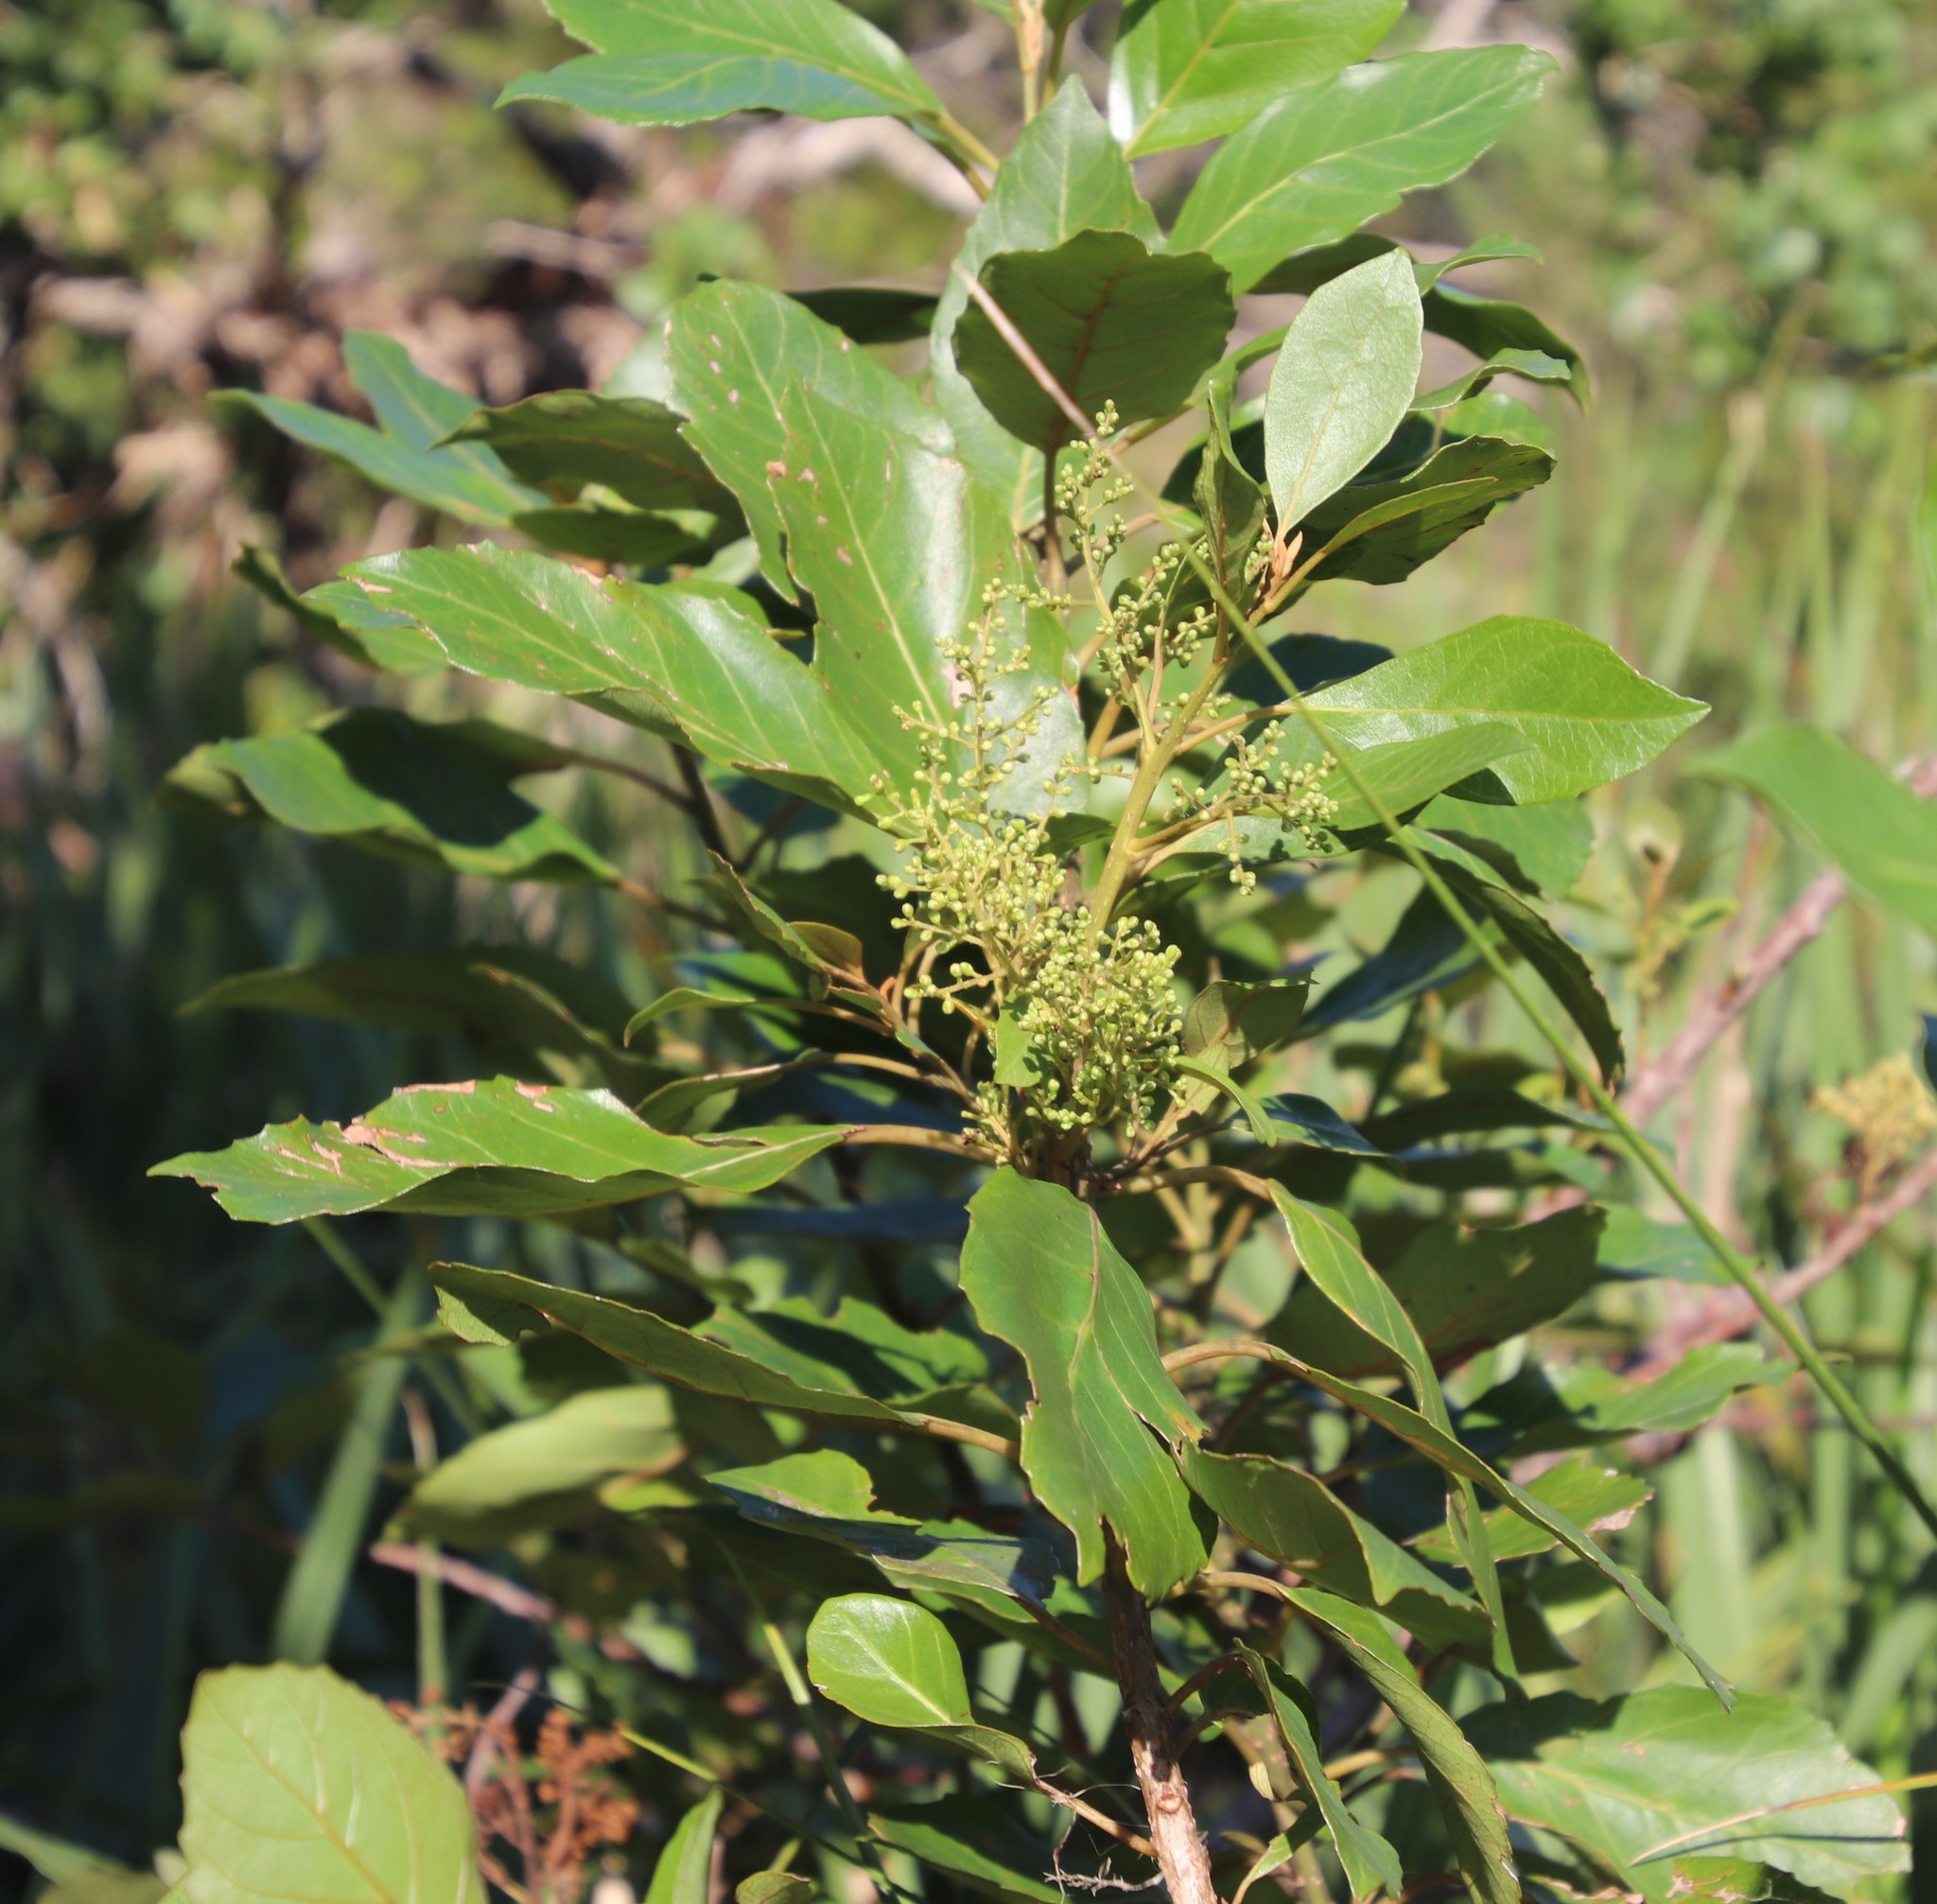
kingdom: Plantae
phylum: Tracheophyta
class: Magnoliopsida
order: Ericales
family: Primulaceae
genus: Maesa
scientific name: Maesa lanceolata
